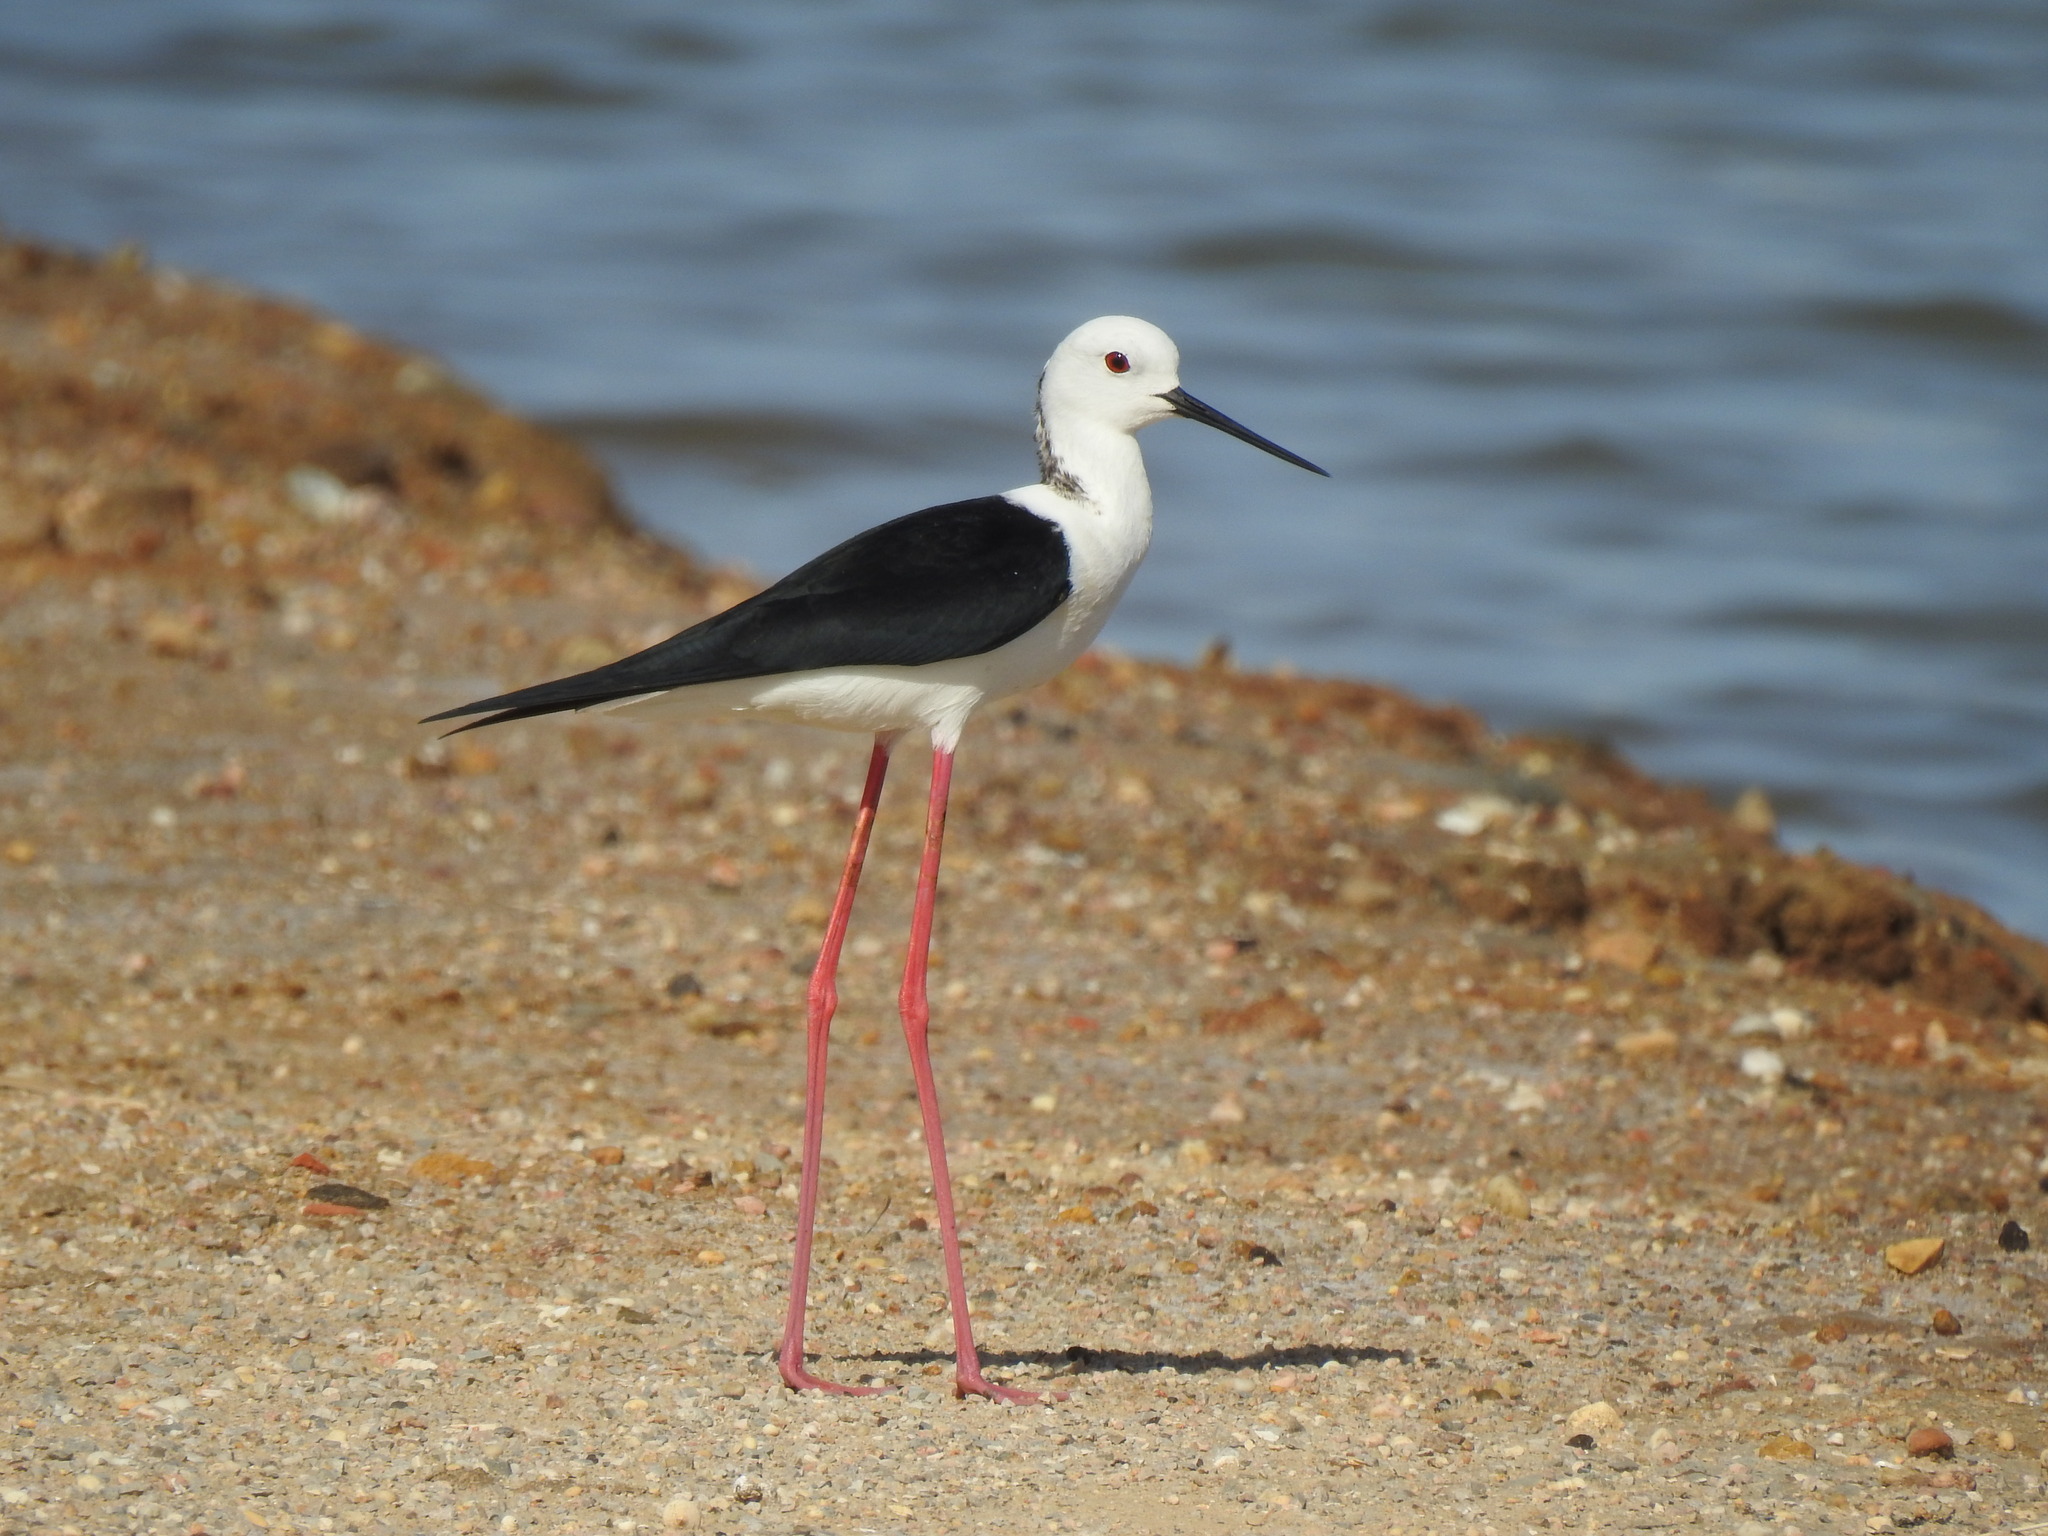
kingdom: Animalia
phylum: Chordata
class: Aves
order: Charadriiformes
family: Recurvirostridae
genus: Himantopus
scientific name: Himantopus himantopus
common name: Black-winged stilt
